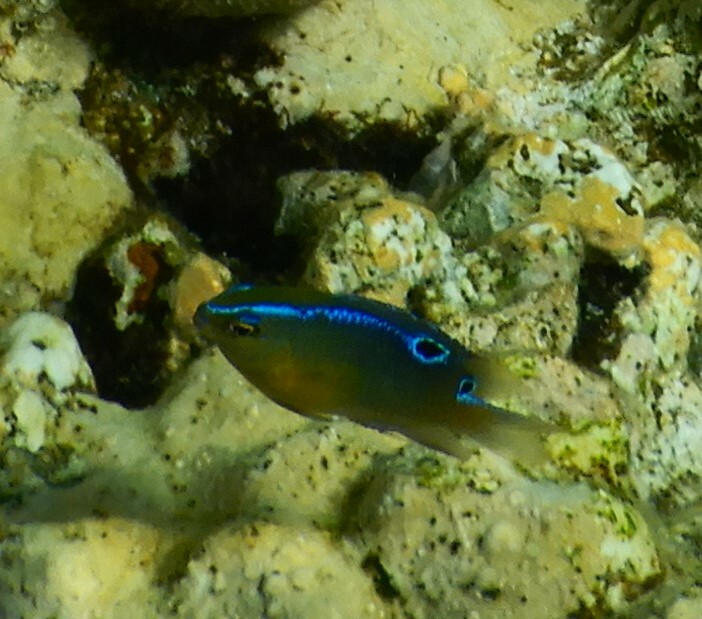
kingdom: Animalia
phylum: Chordata
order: Perciformes
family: Pomacentridae
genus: Chrysiptera
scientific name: Chrysiptera unimaculata
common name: Onespot demoiselle
